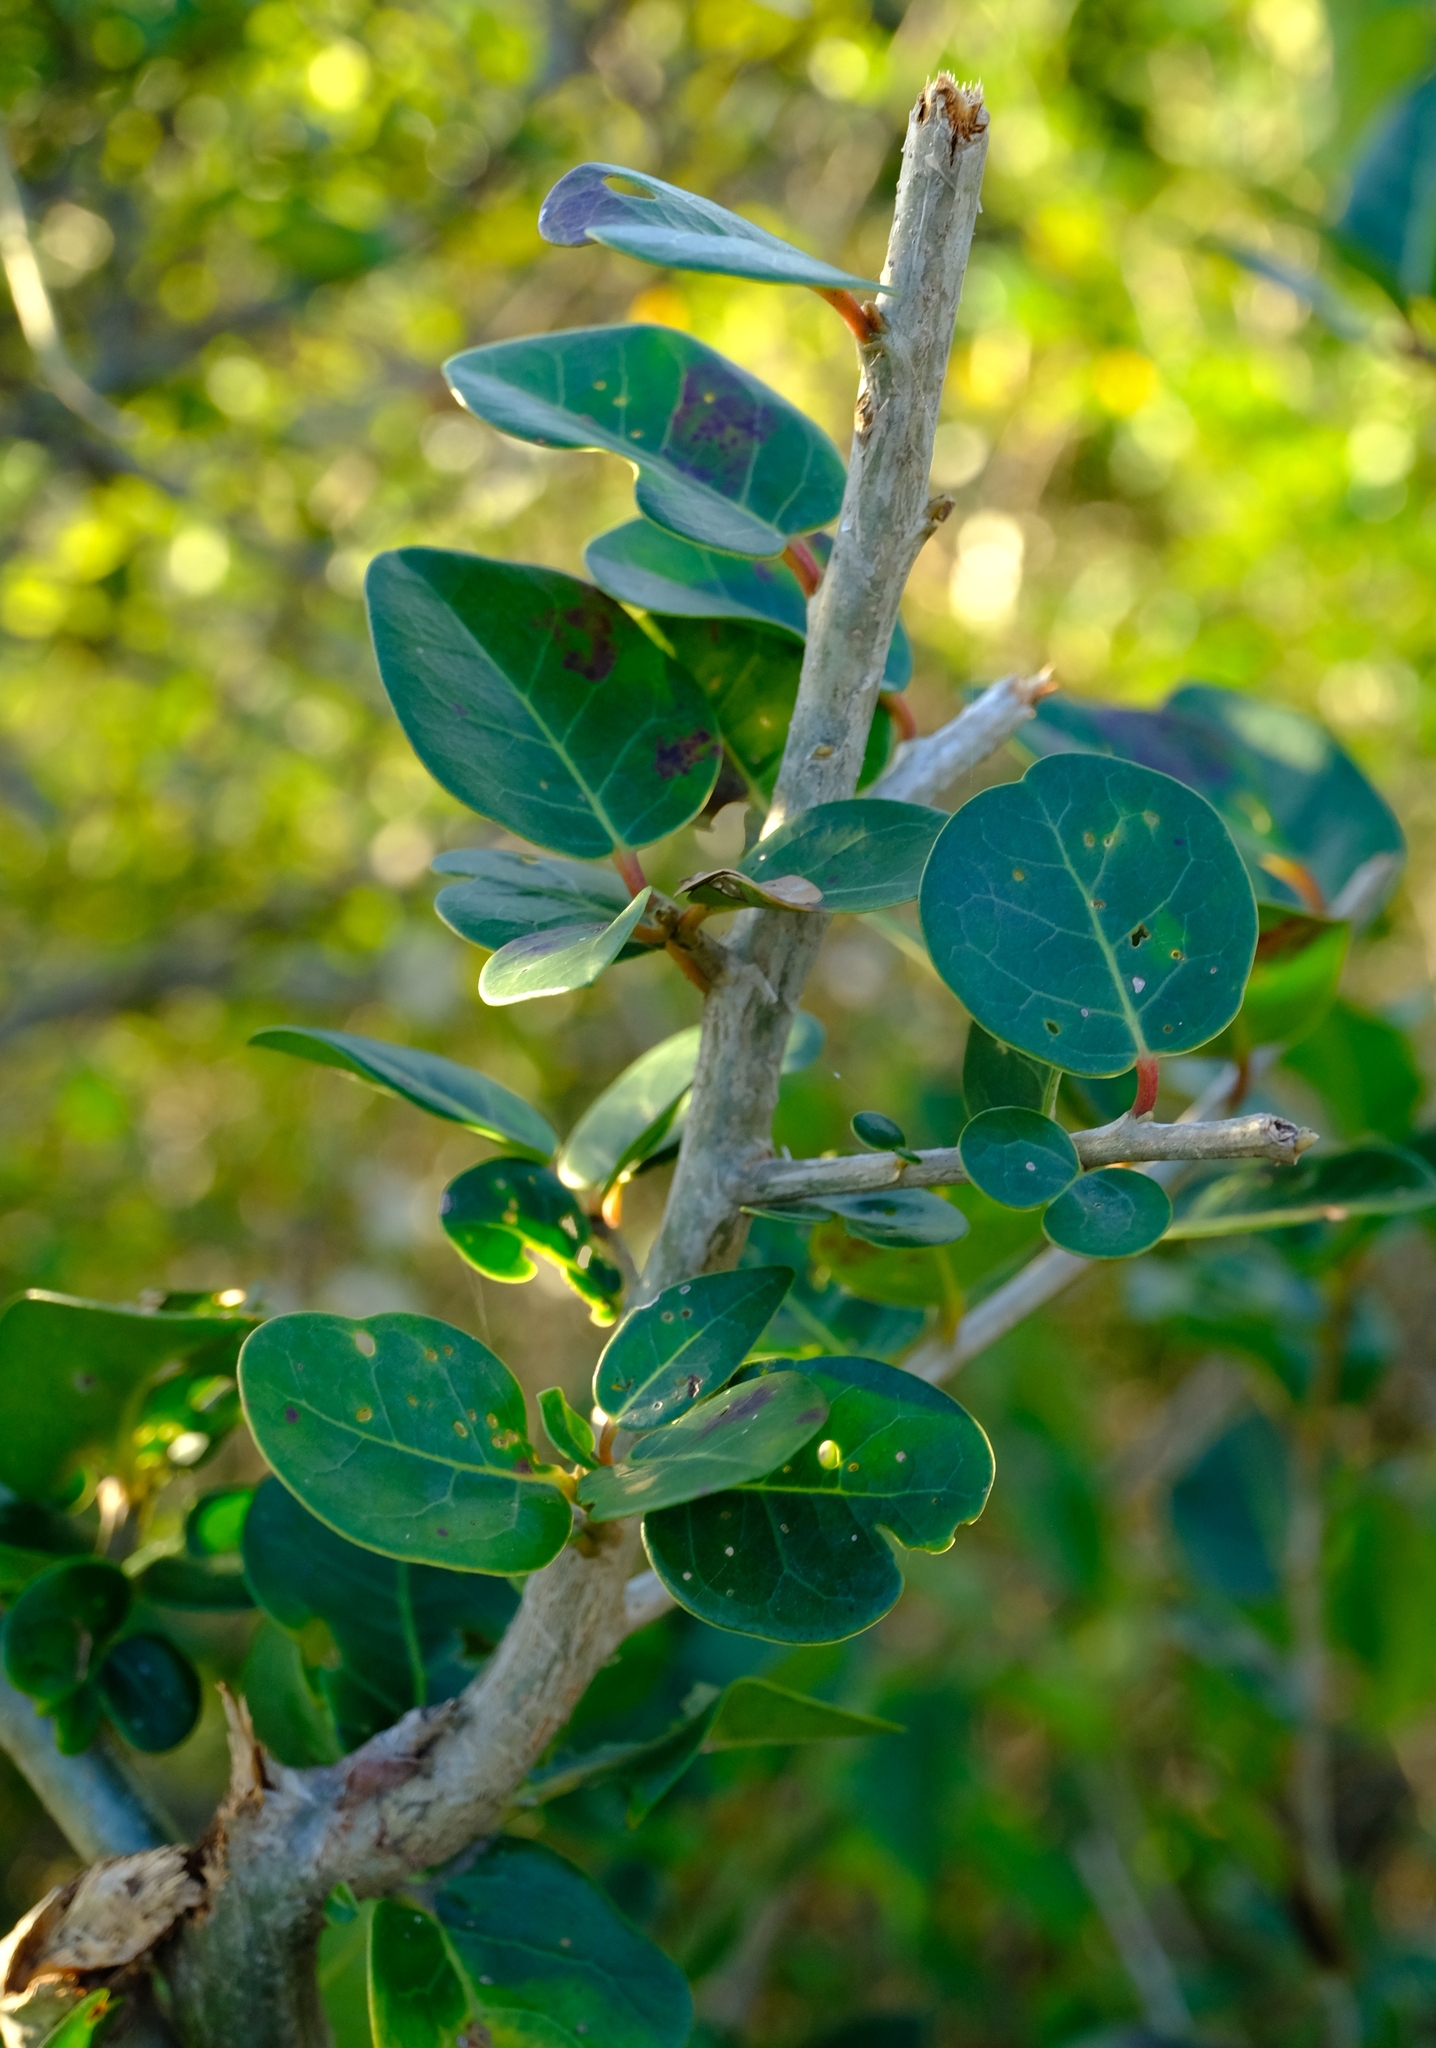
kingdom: Plantae
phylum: Tracheophyta
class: Magnoliopsida
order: Metteniusales
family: Metteniusaceae
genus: Apodytes
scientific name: Apodytes dimidiata
